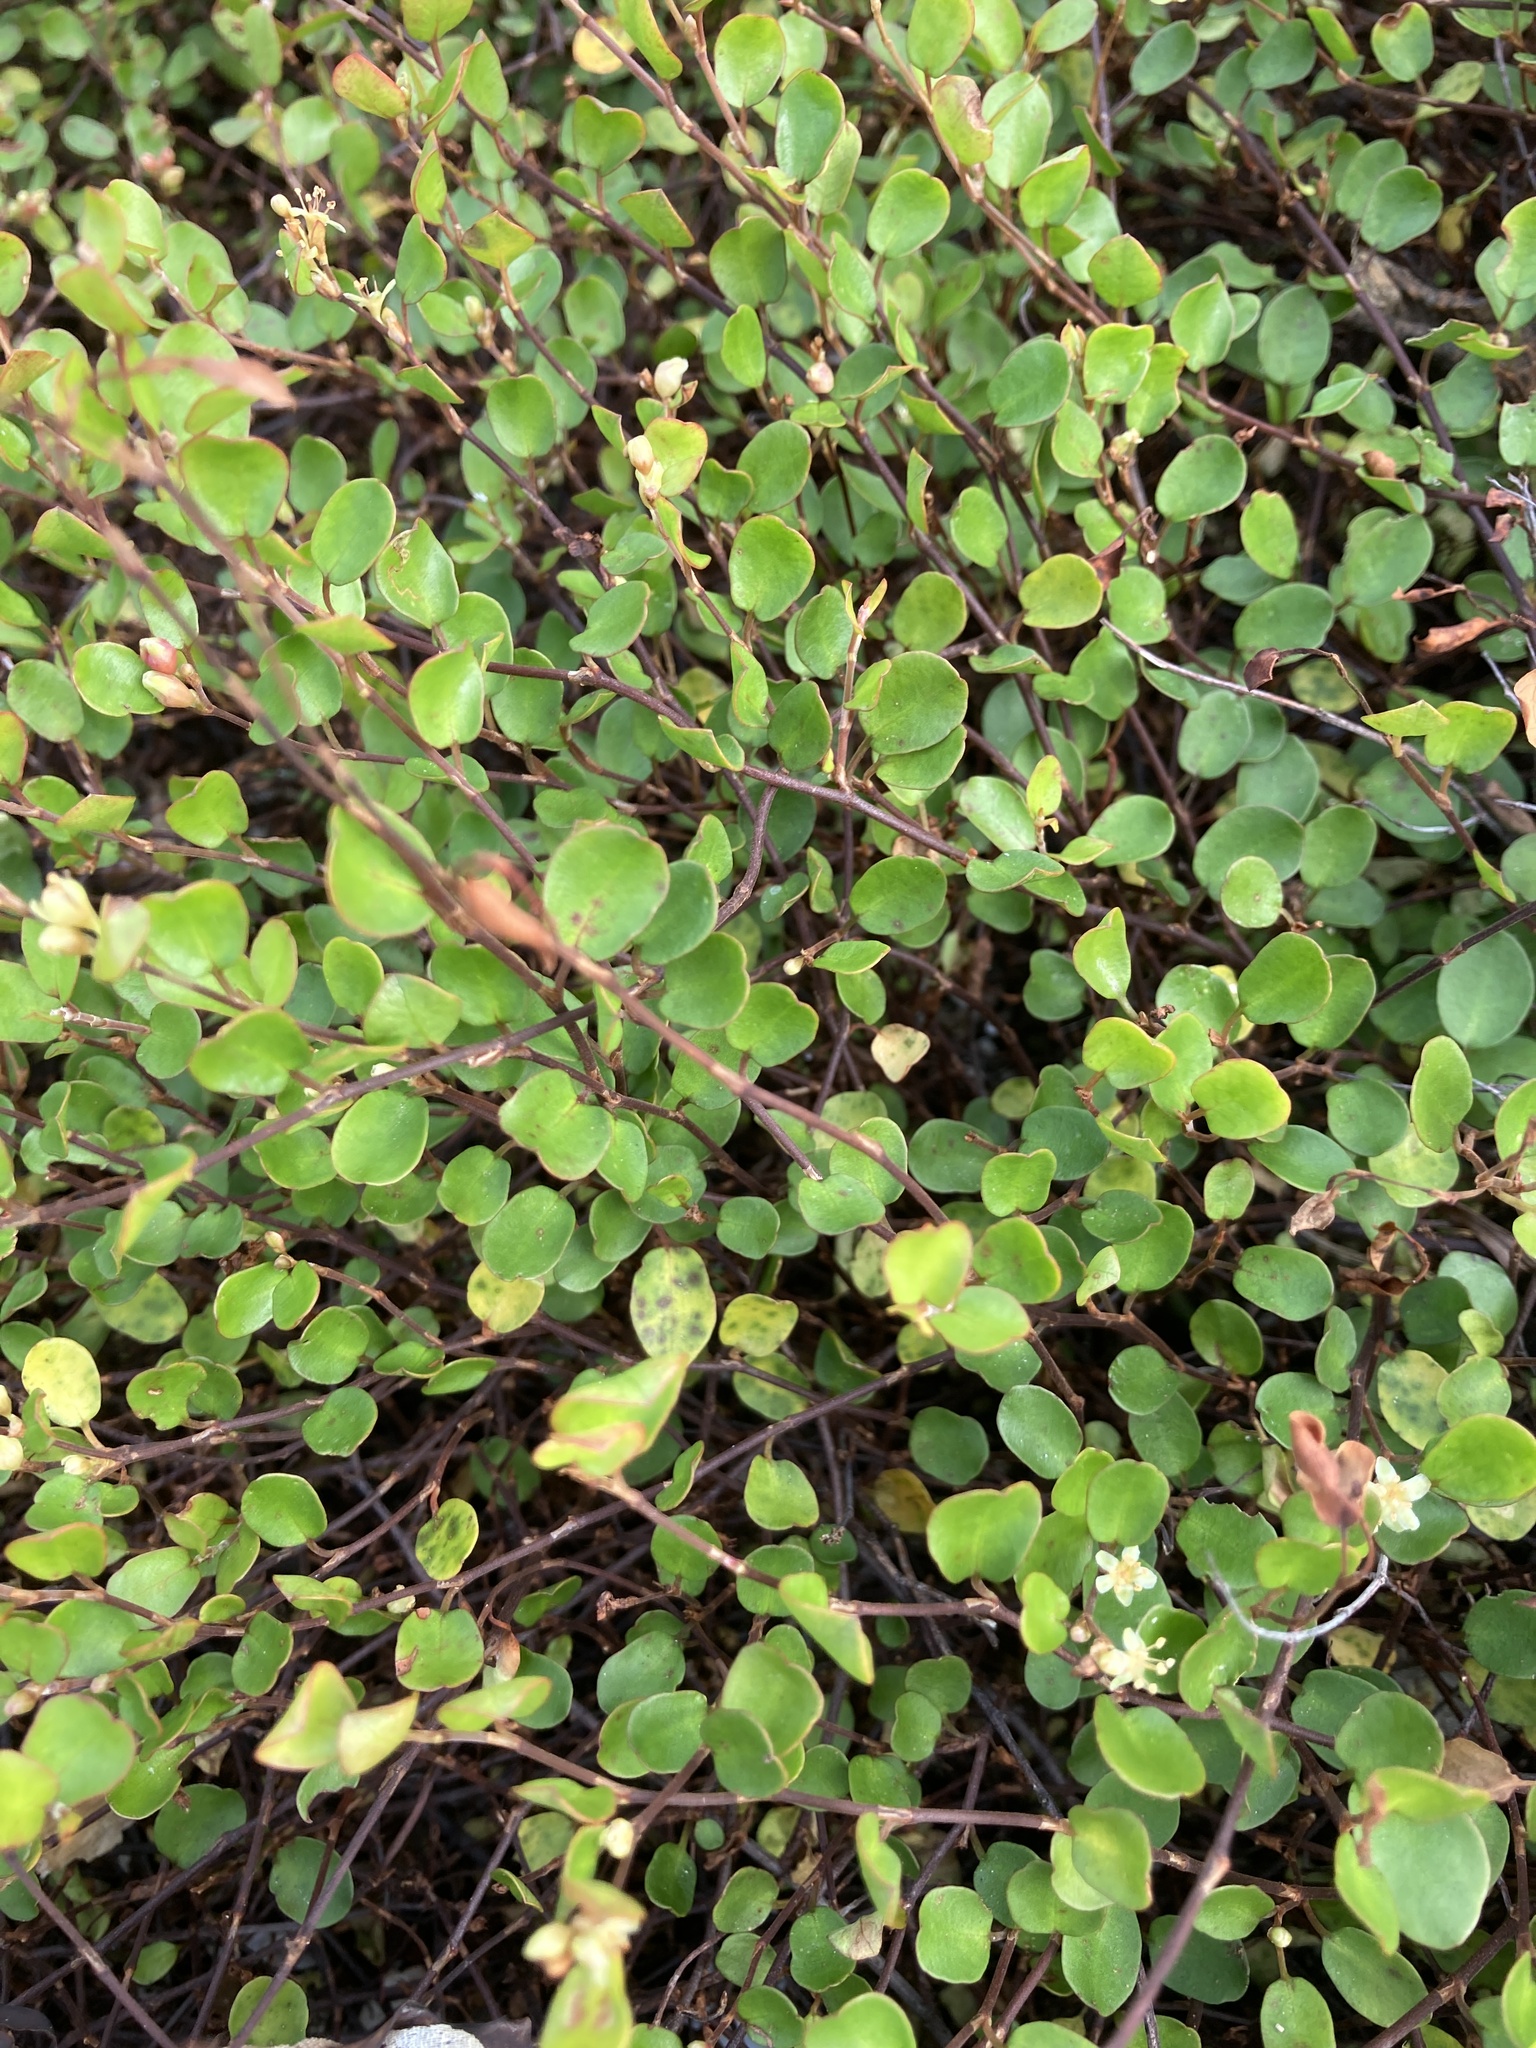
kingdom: Plantae
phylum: Tracheophyta
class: Magnoliopsida
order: Caryophyllales
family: Polygonaceae
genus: Muehlenbeckia
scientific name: Muehlenbeckia complexa
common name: Wireplant
